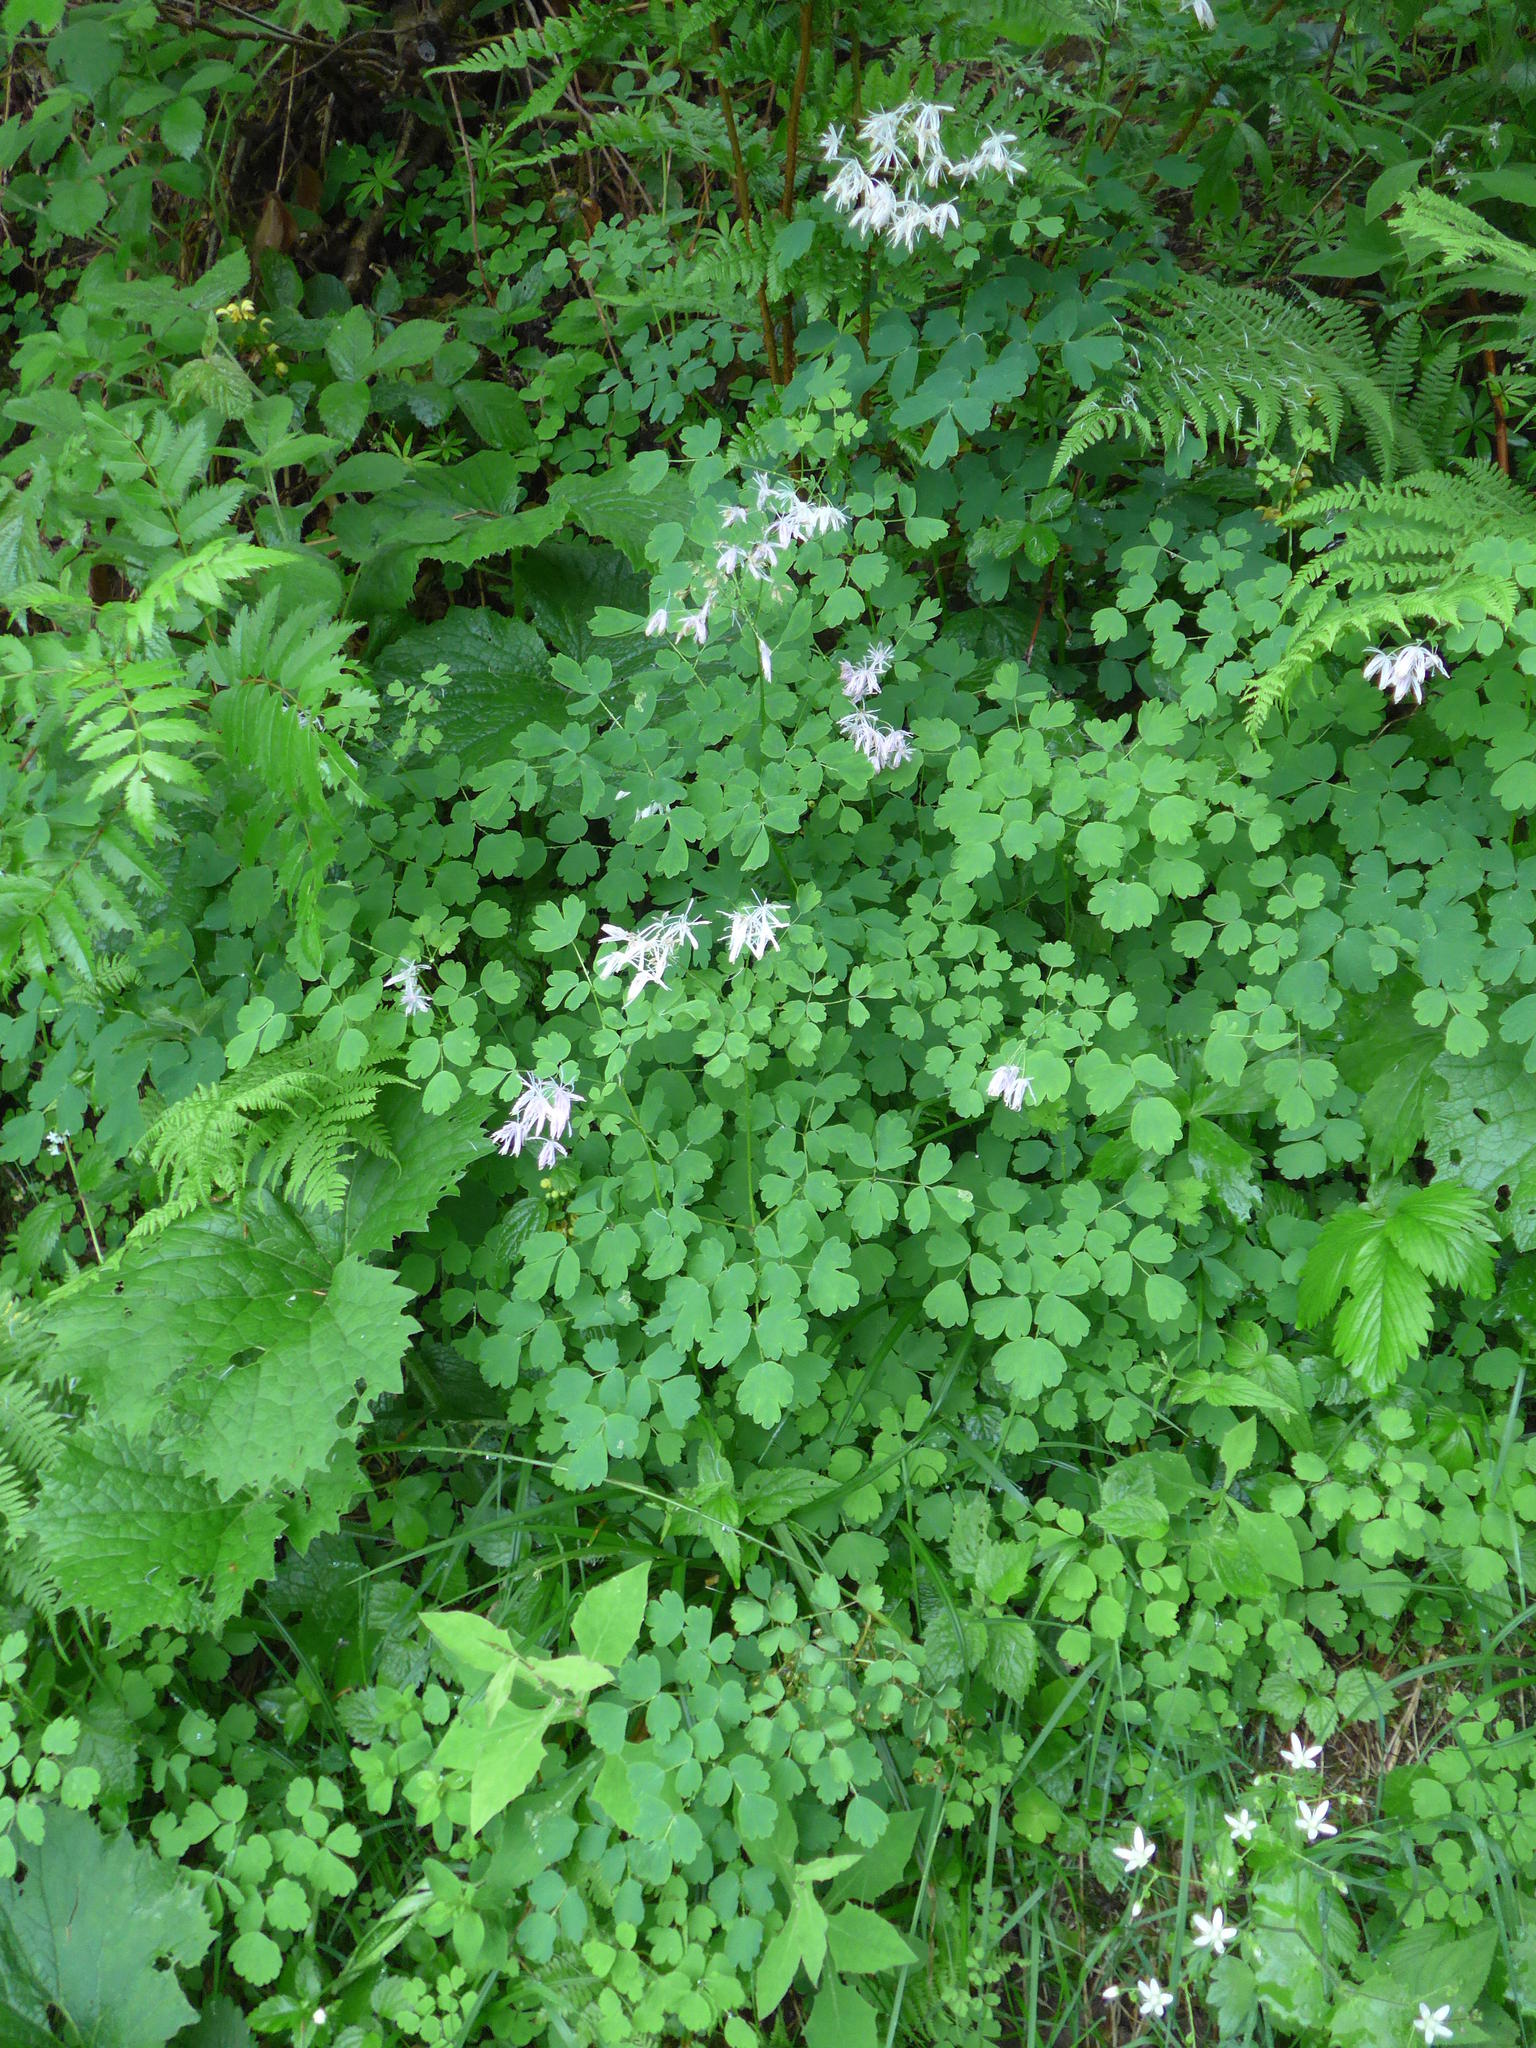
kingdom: Plantae
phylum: Tracheophyta
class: Magnoliopsida
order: Ranunculales
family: Ranunculaceae
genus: Thalictrum
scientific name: Thalictrum aquilegiifolium
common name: French meadow-rue
